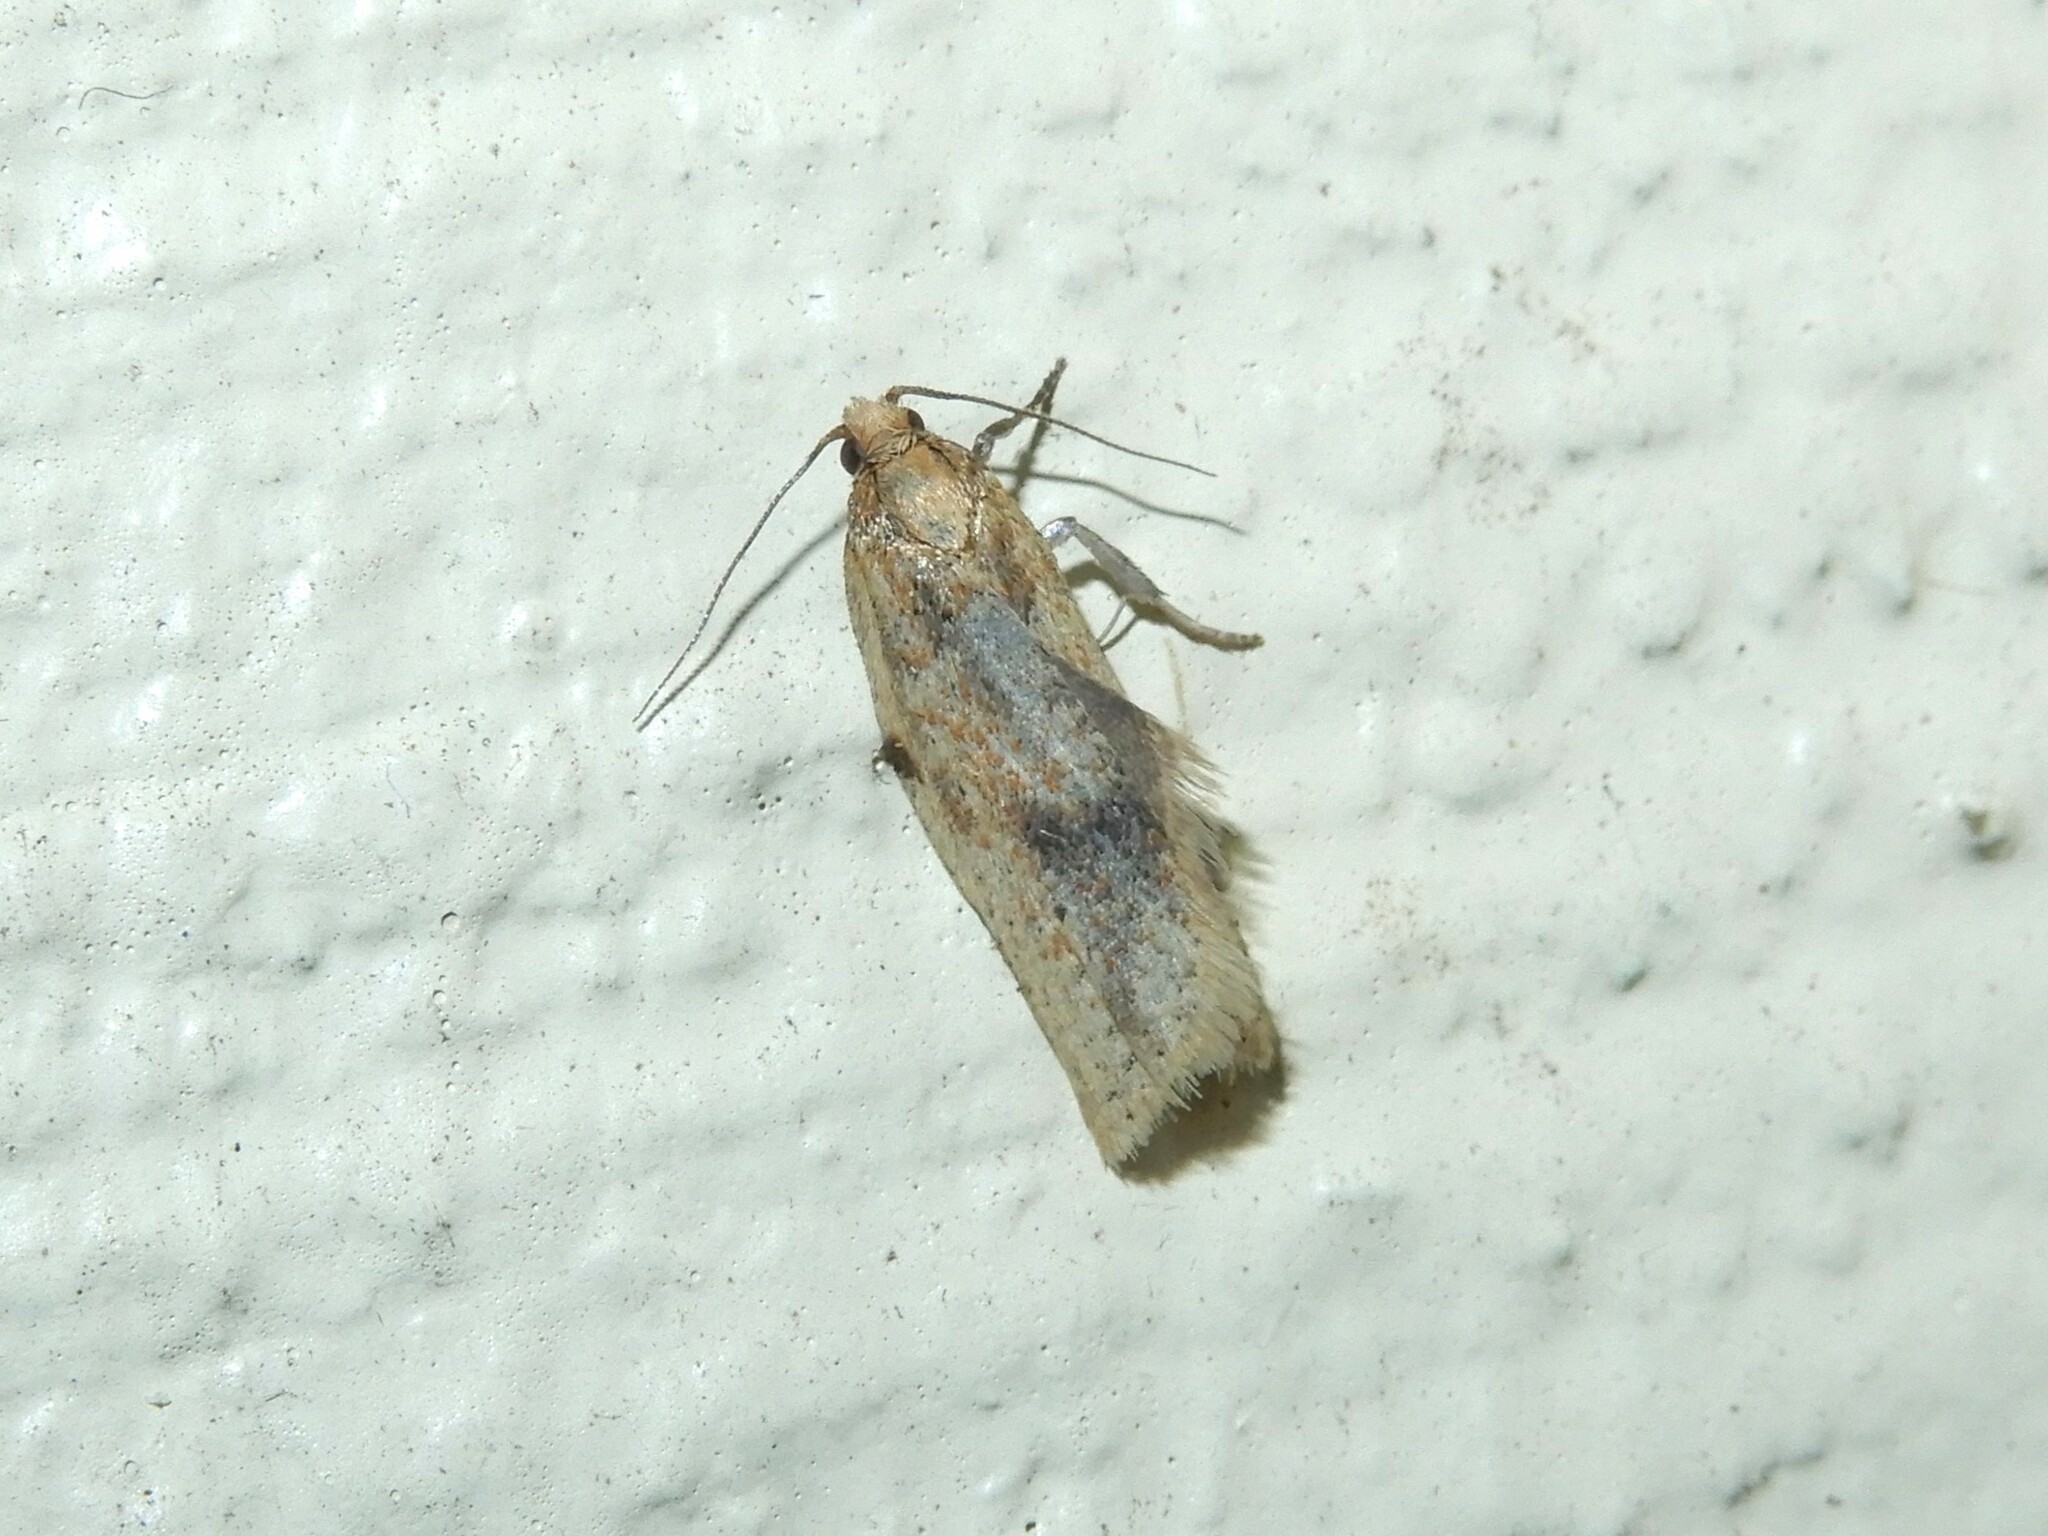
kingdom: Animalia
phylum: Arthropoda
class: Insecta
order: Lepidoptera
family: Tortricidae
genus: Clepsis
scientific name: Clepsis
